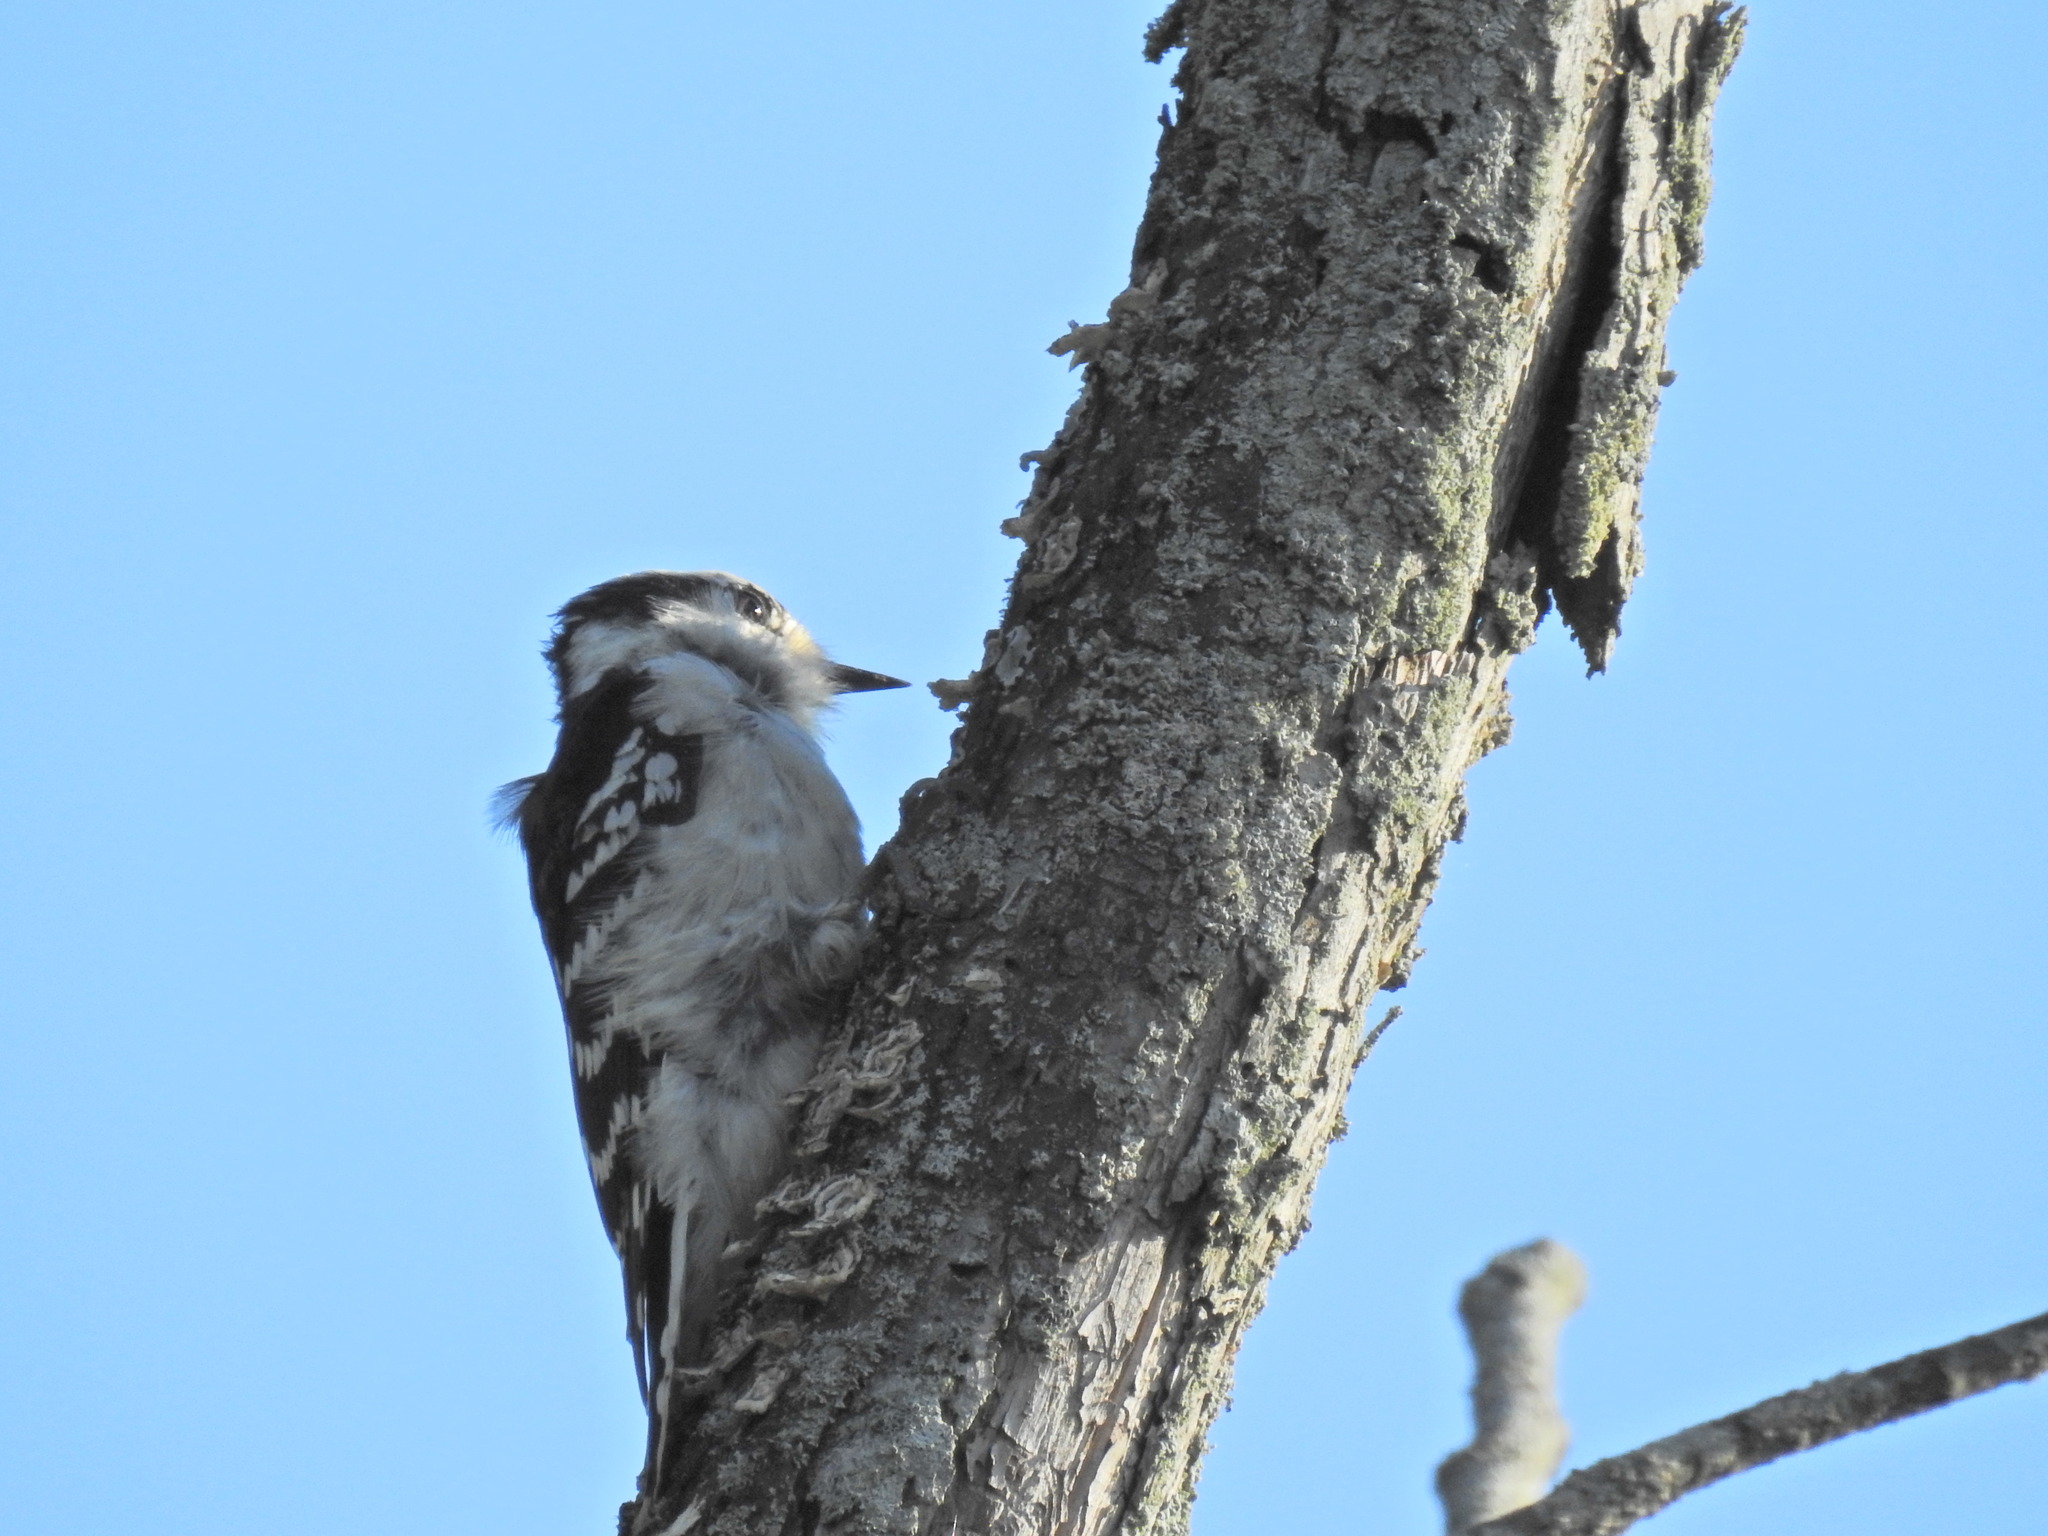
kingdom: Animalia
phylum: Chordata
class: Aves
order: Piciformes
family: Picidae
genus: Dryobates
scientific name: Dryobates pubescens
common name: Downy woodpecker
